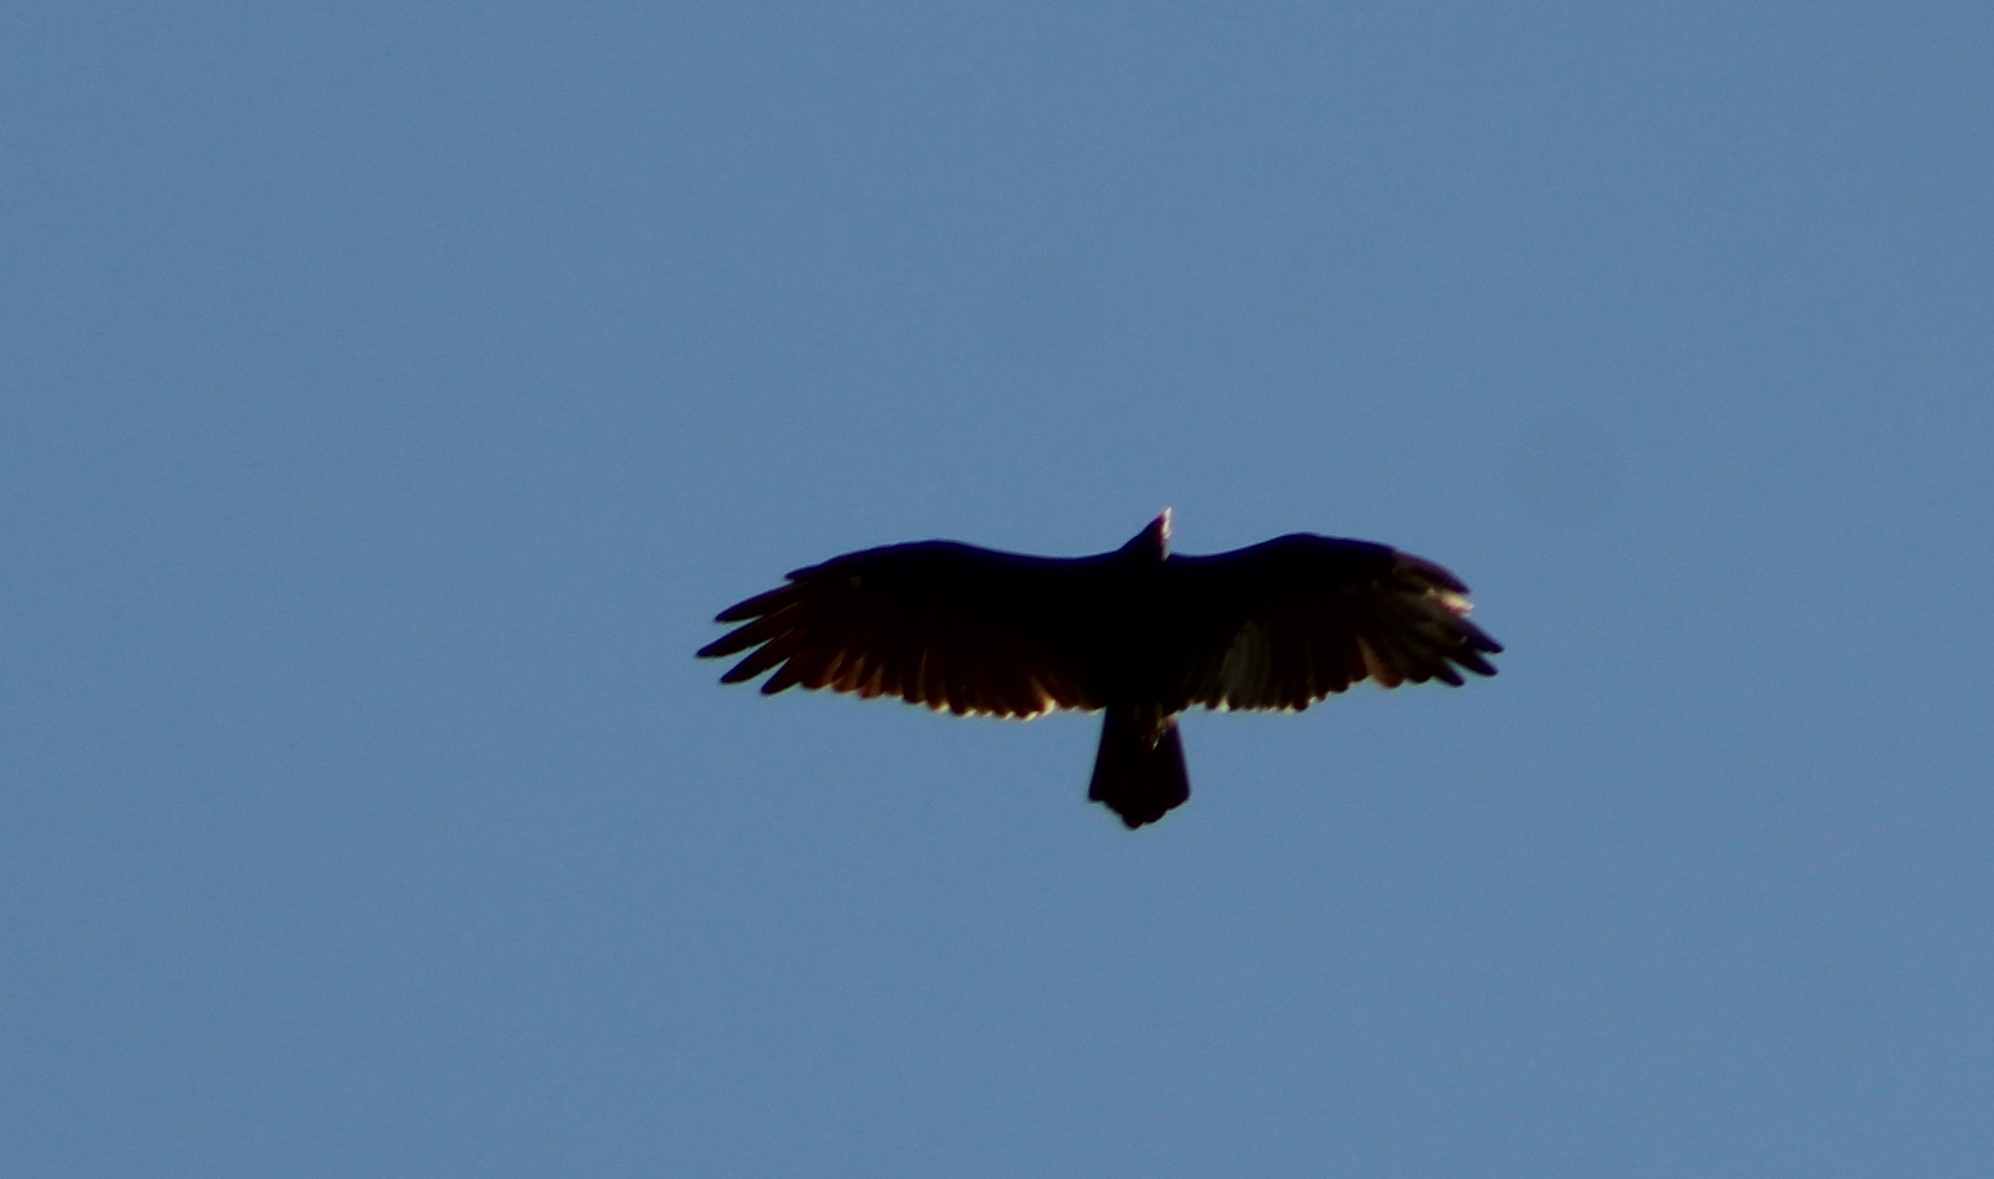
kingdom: Animalia
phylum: Chordata
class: Aves
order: Accipitriformes
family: Cathartidae
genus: Cathartes
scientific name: Cathartes aura
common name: Turkey vulture
